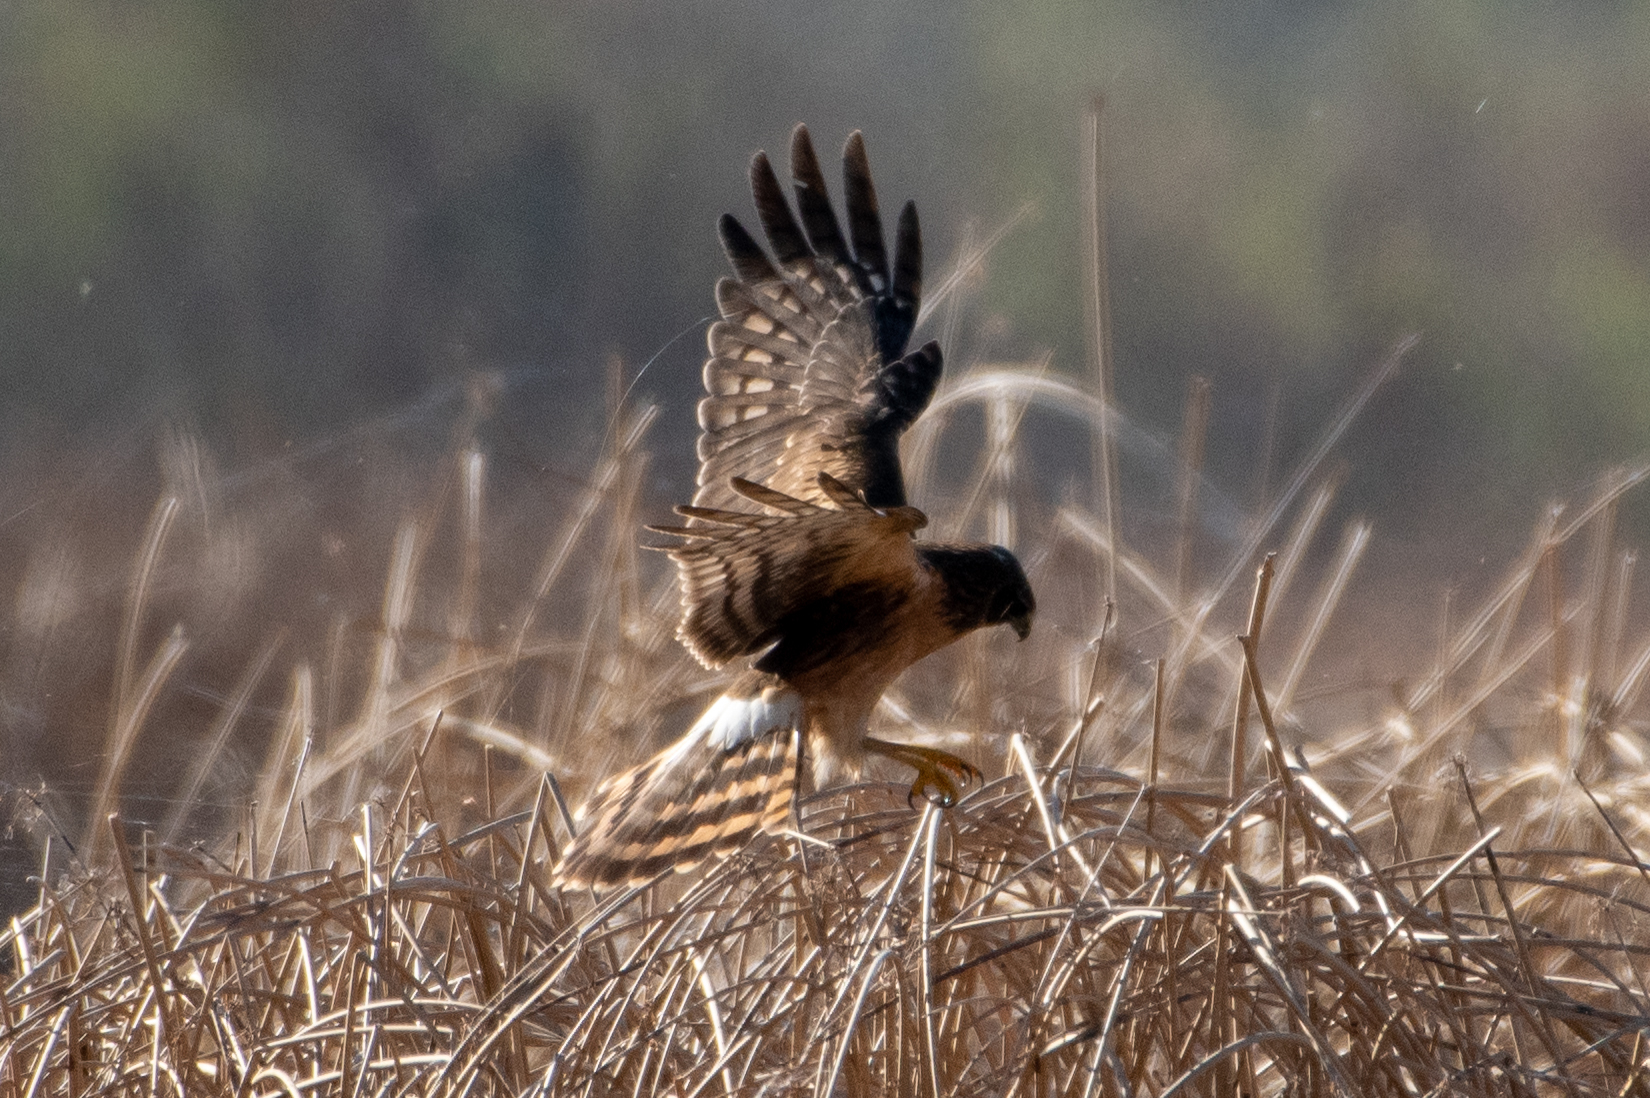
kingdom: Animalia
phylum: Chordata
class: Aves
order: Accipitriformes
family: Accipitridae
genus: Circus
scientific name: Circus cyaneus
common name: Hen harrier
